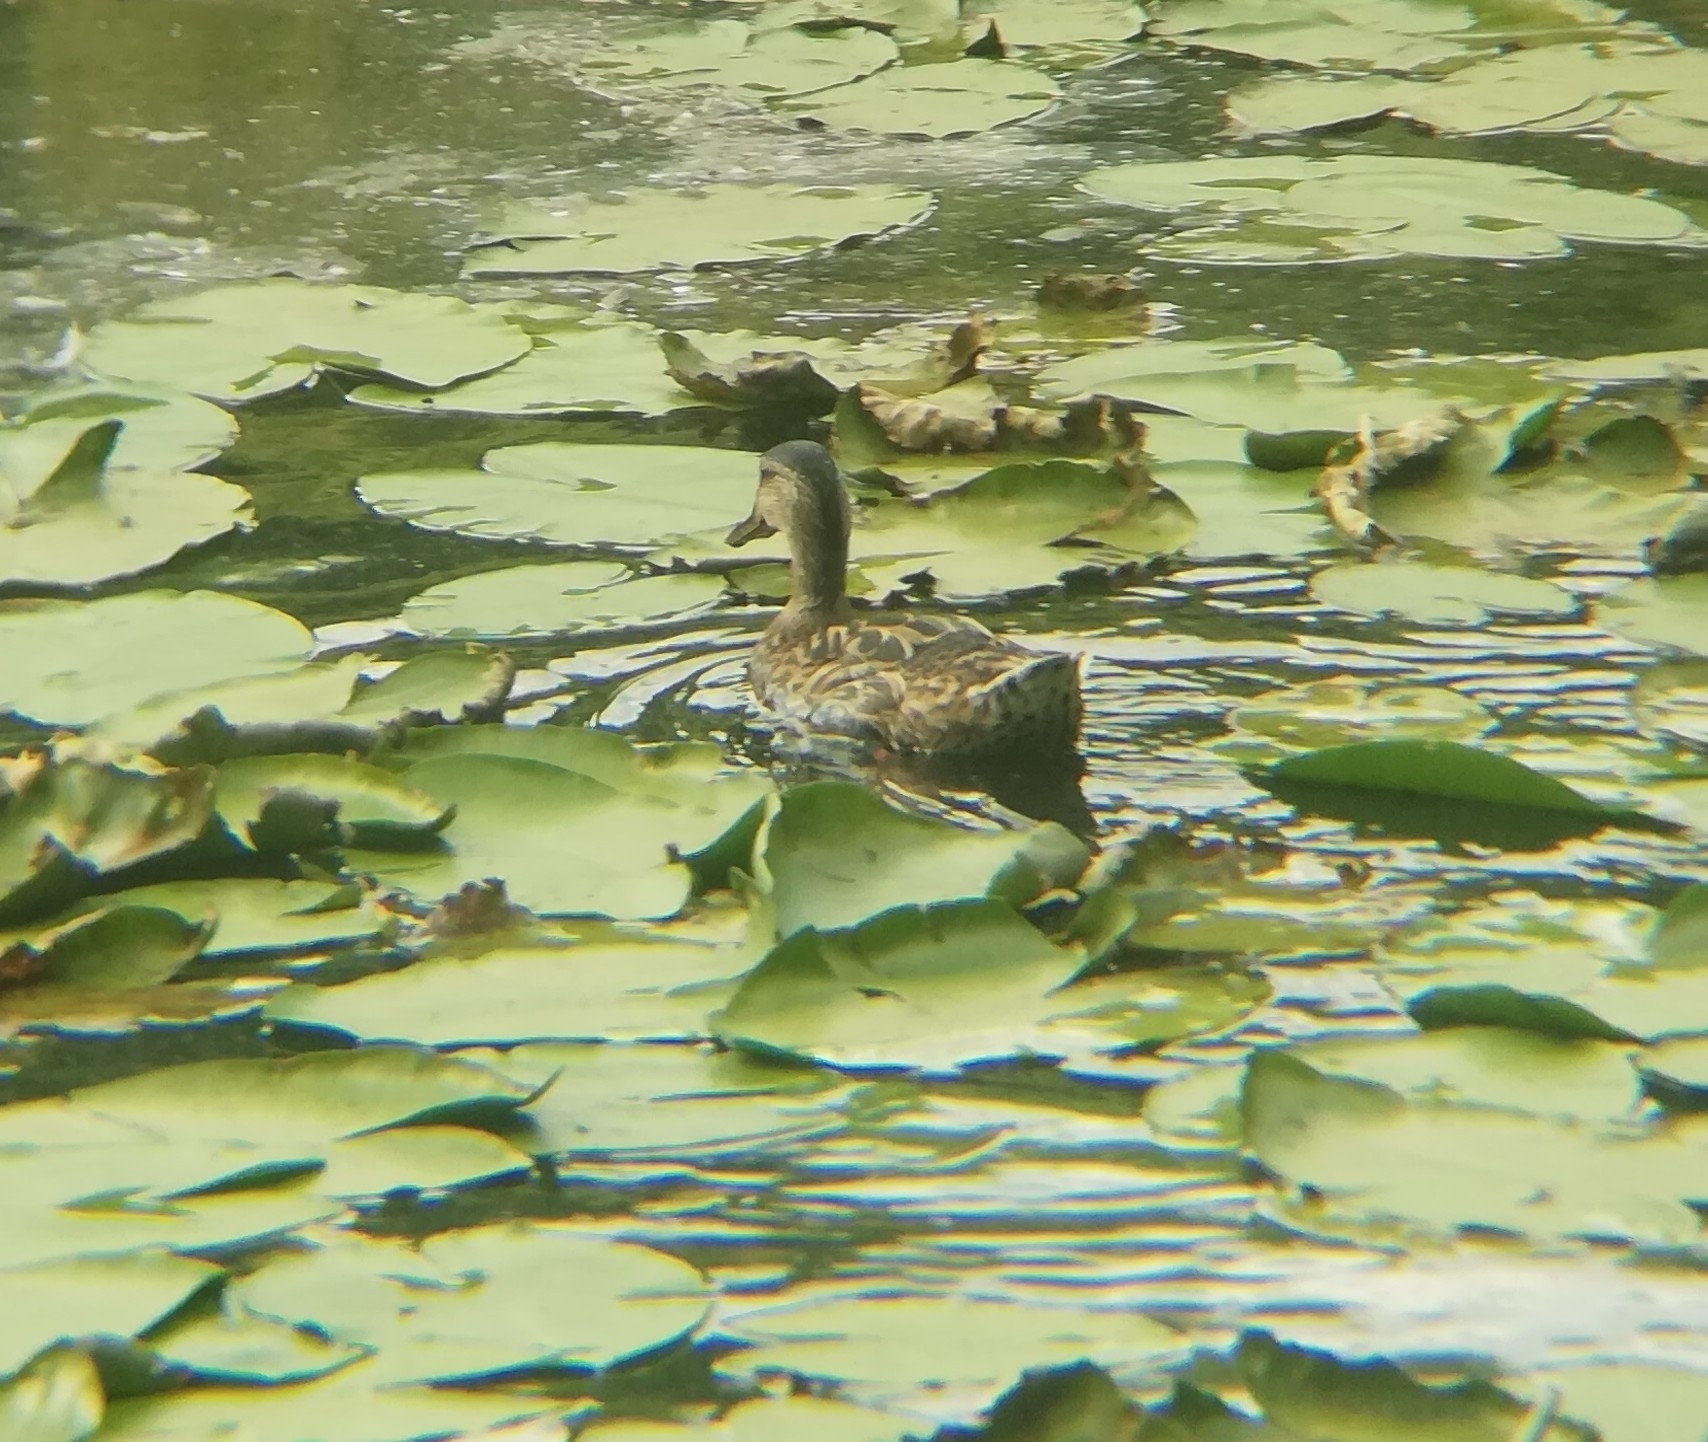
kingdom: Animalia
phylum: Chordata
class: Aves
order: Anseriformes
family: Anatidae
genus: Anas
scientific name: Anas platyrhynchos
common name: Mallard
